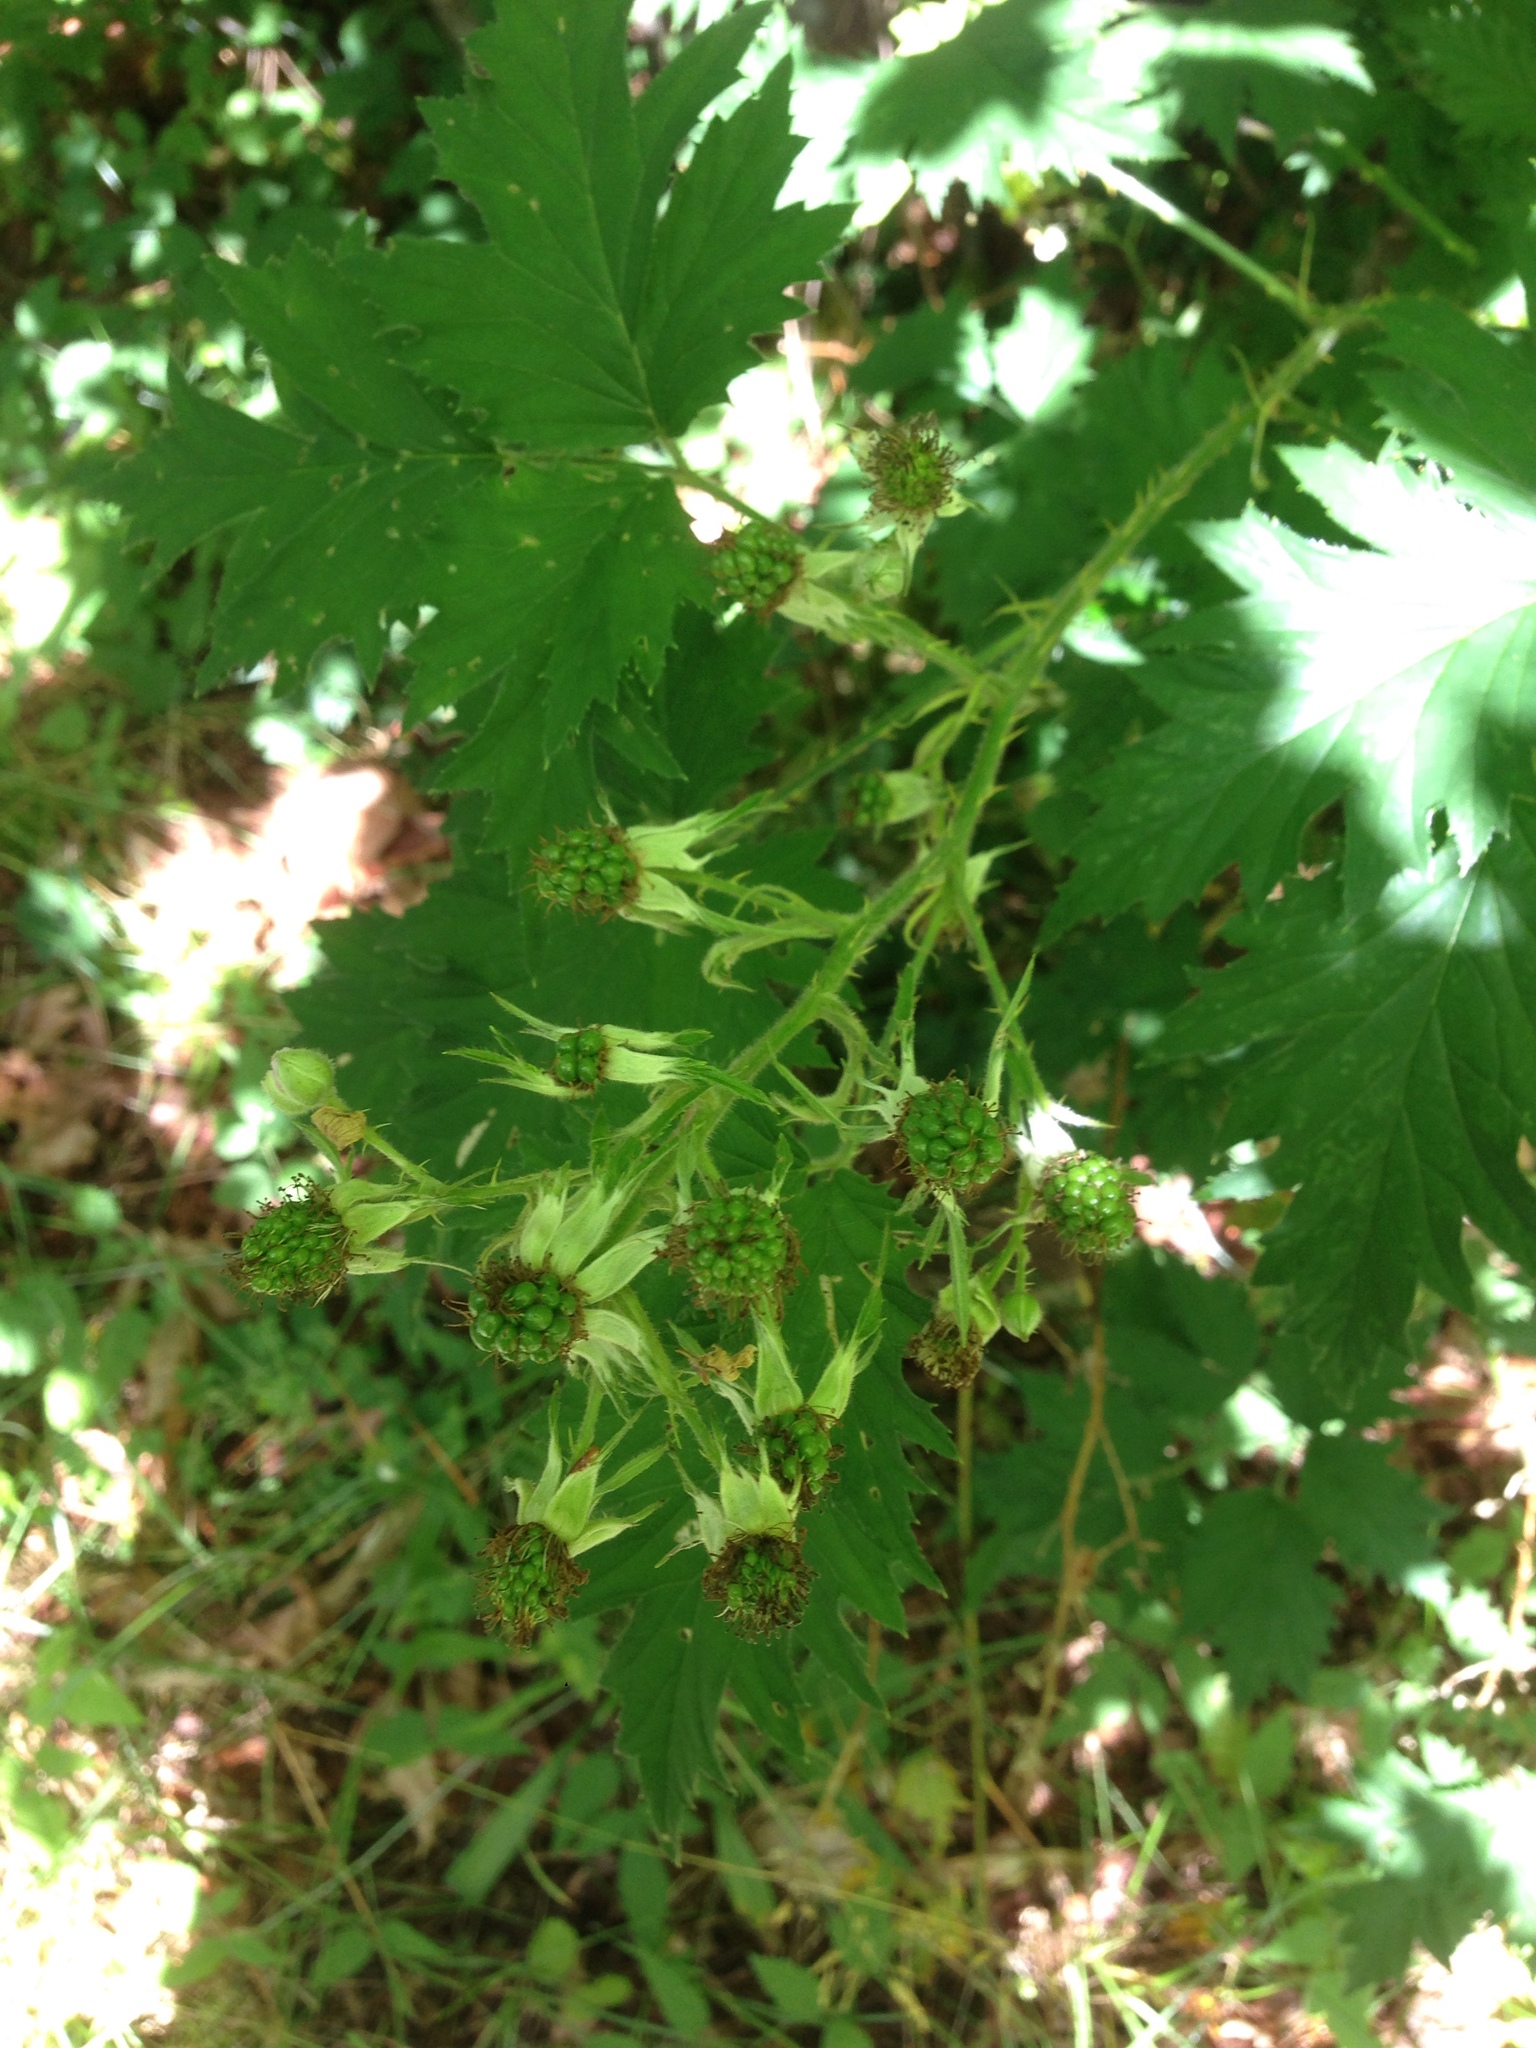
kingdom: Plantae
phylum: Tracheophyta
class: Magnoliopsida
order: Rosales
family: Rosaceae
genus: Rubus
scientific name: Rubus laciniatus
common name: Evergreen blackberry
